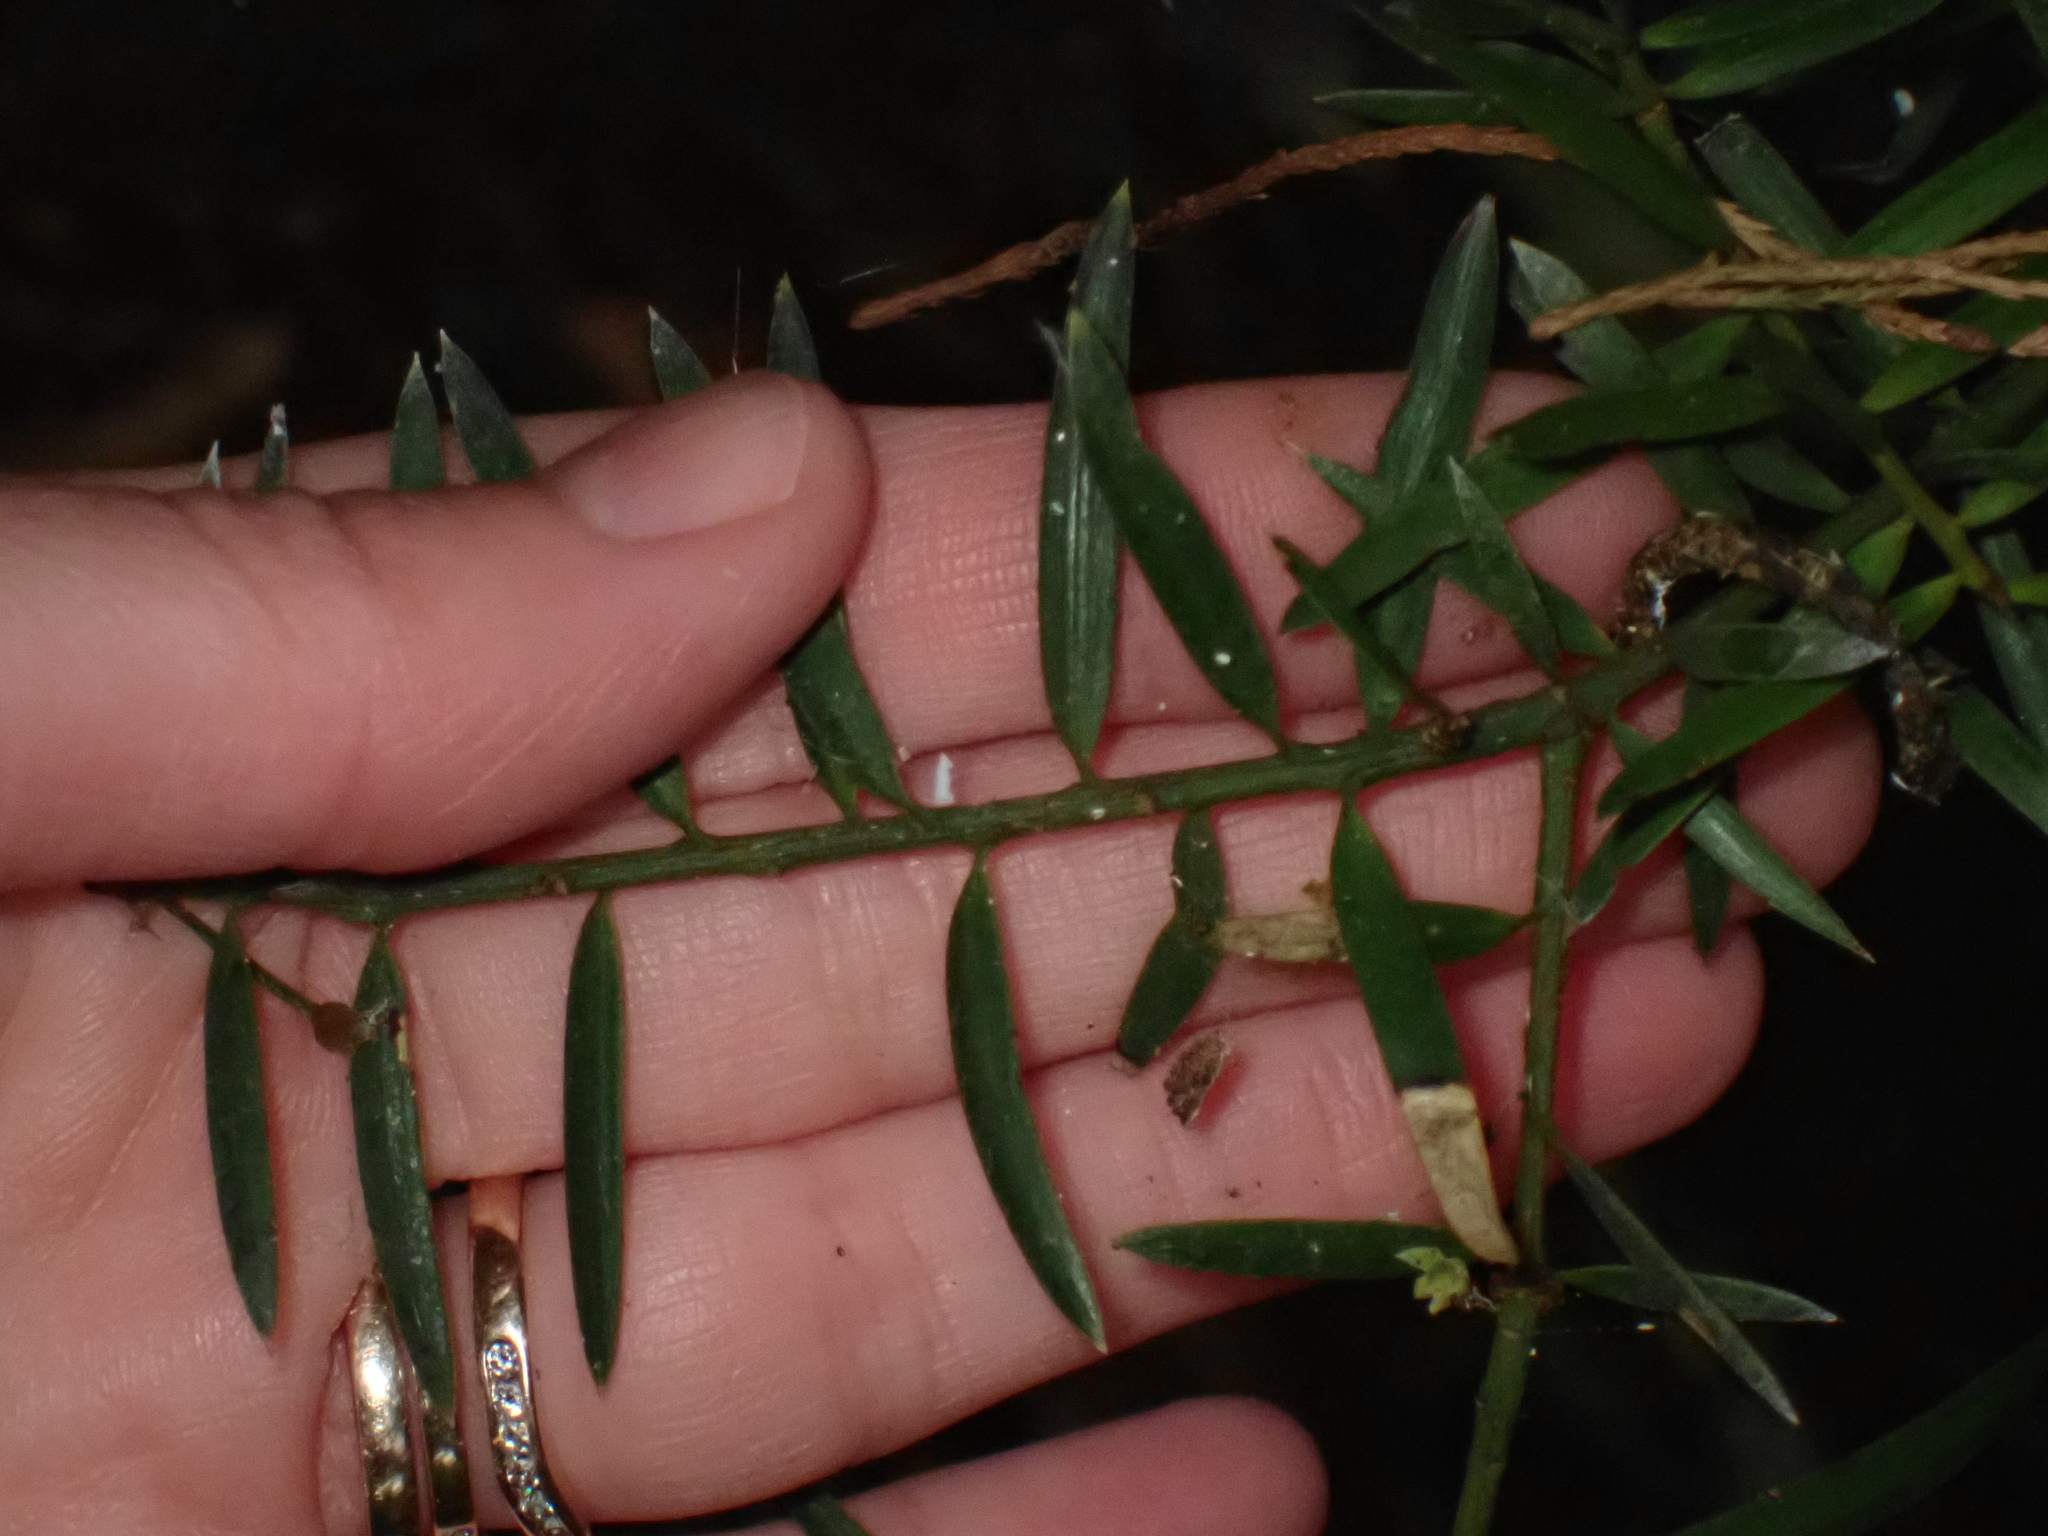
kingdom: Plantae
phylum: Tracheophyta
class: Pinopsida
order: Pinales
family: Podocarpaceae
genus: Podocarpus
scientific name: Podocarpus totara
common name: Totara
